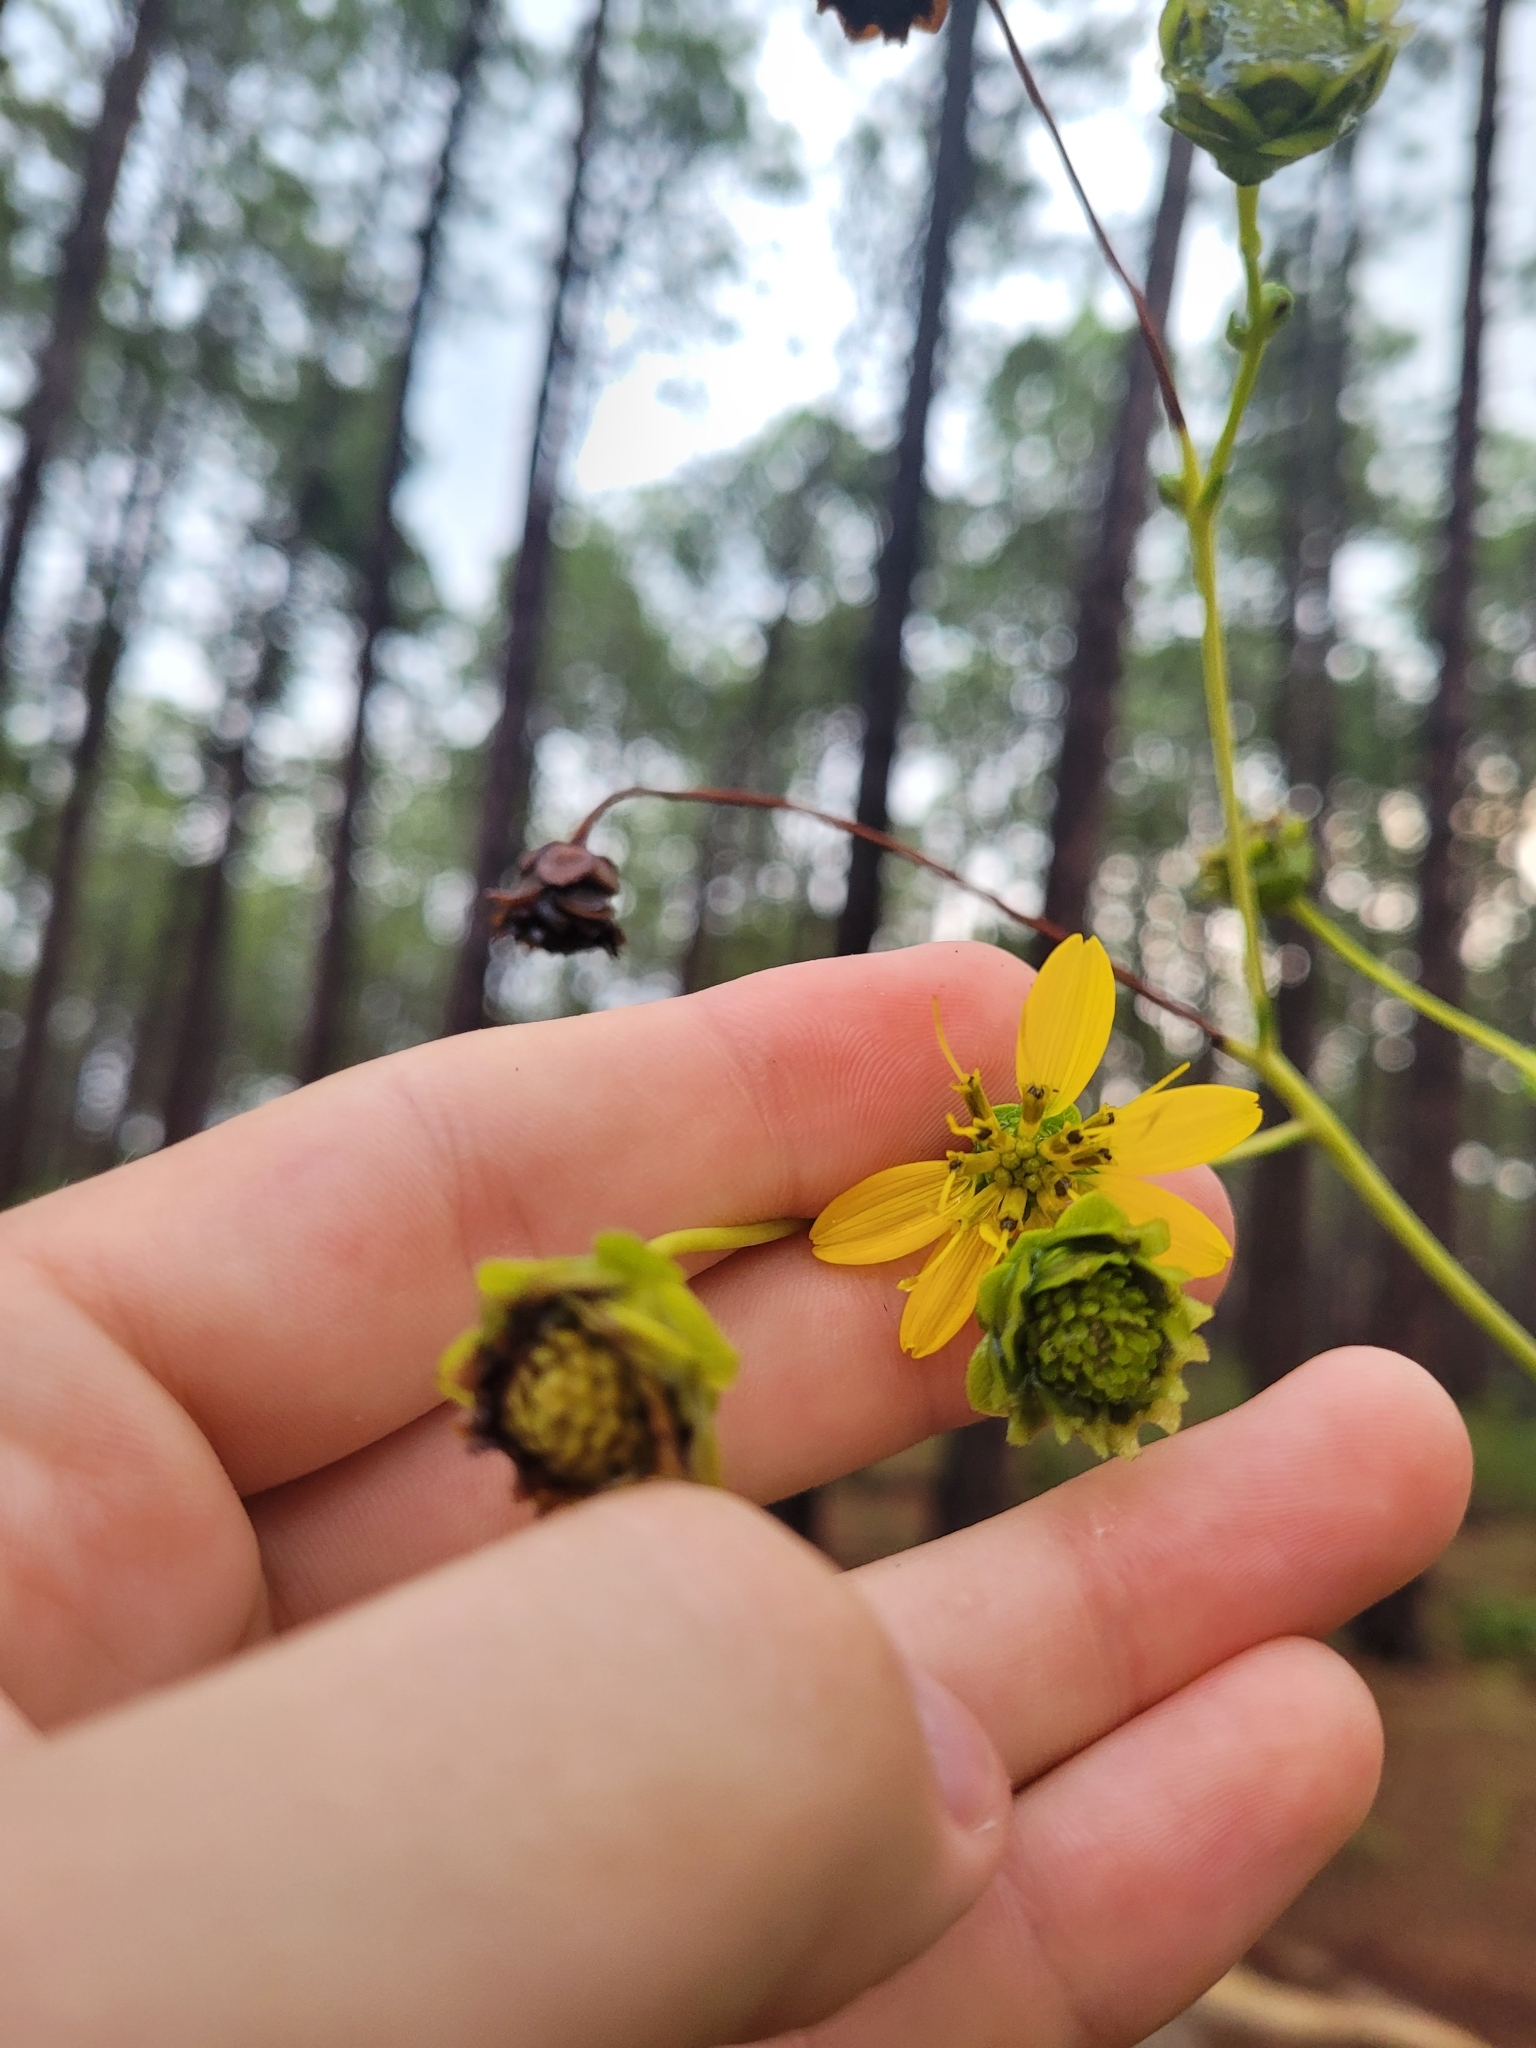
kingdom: Plantae
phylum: Tracheophyta
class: Magnoliopsida
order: Asterales
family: Asteraceae
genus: Silphium
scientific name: Silphium compositum
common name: Lesser basal-leaf rosinweed
